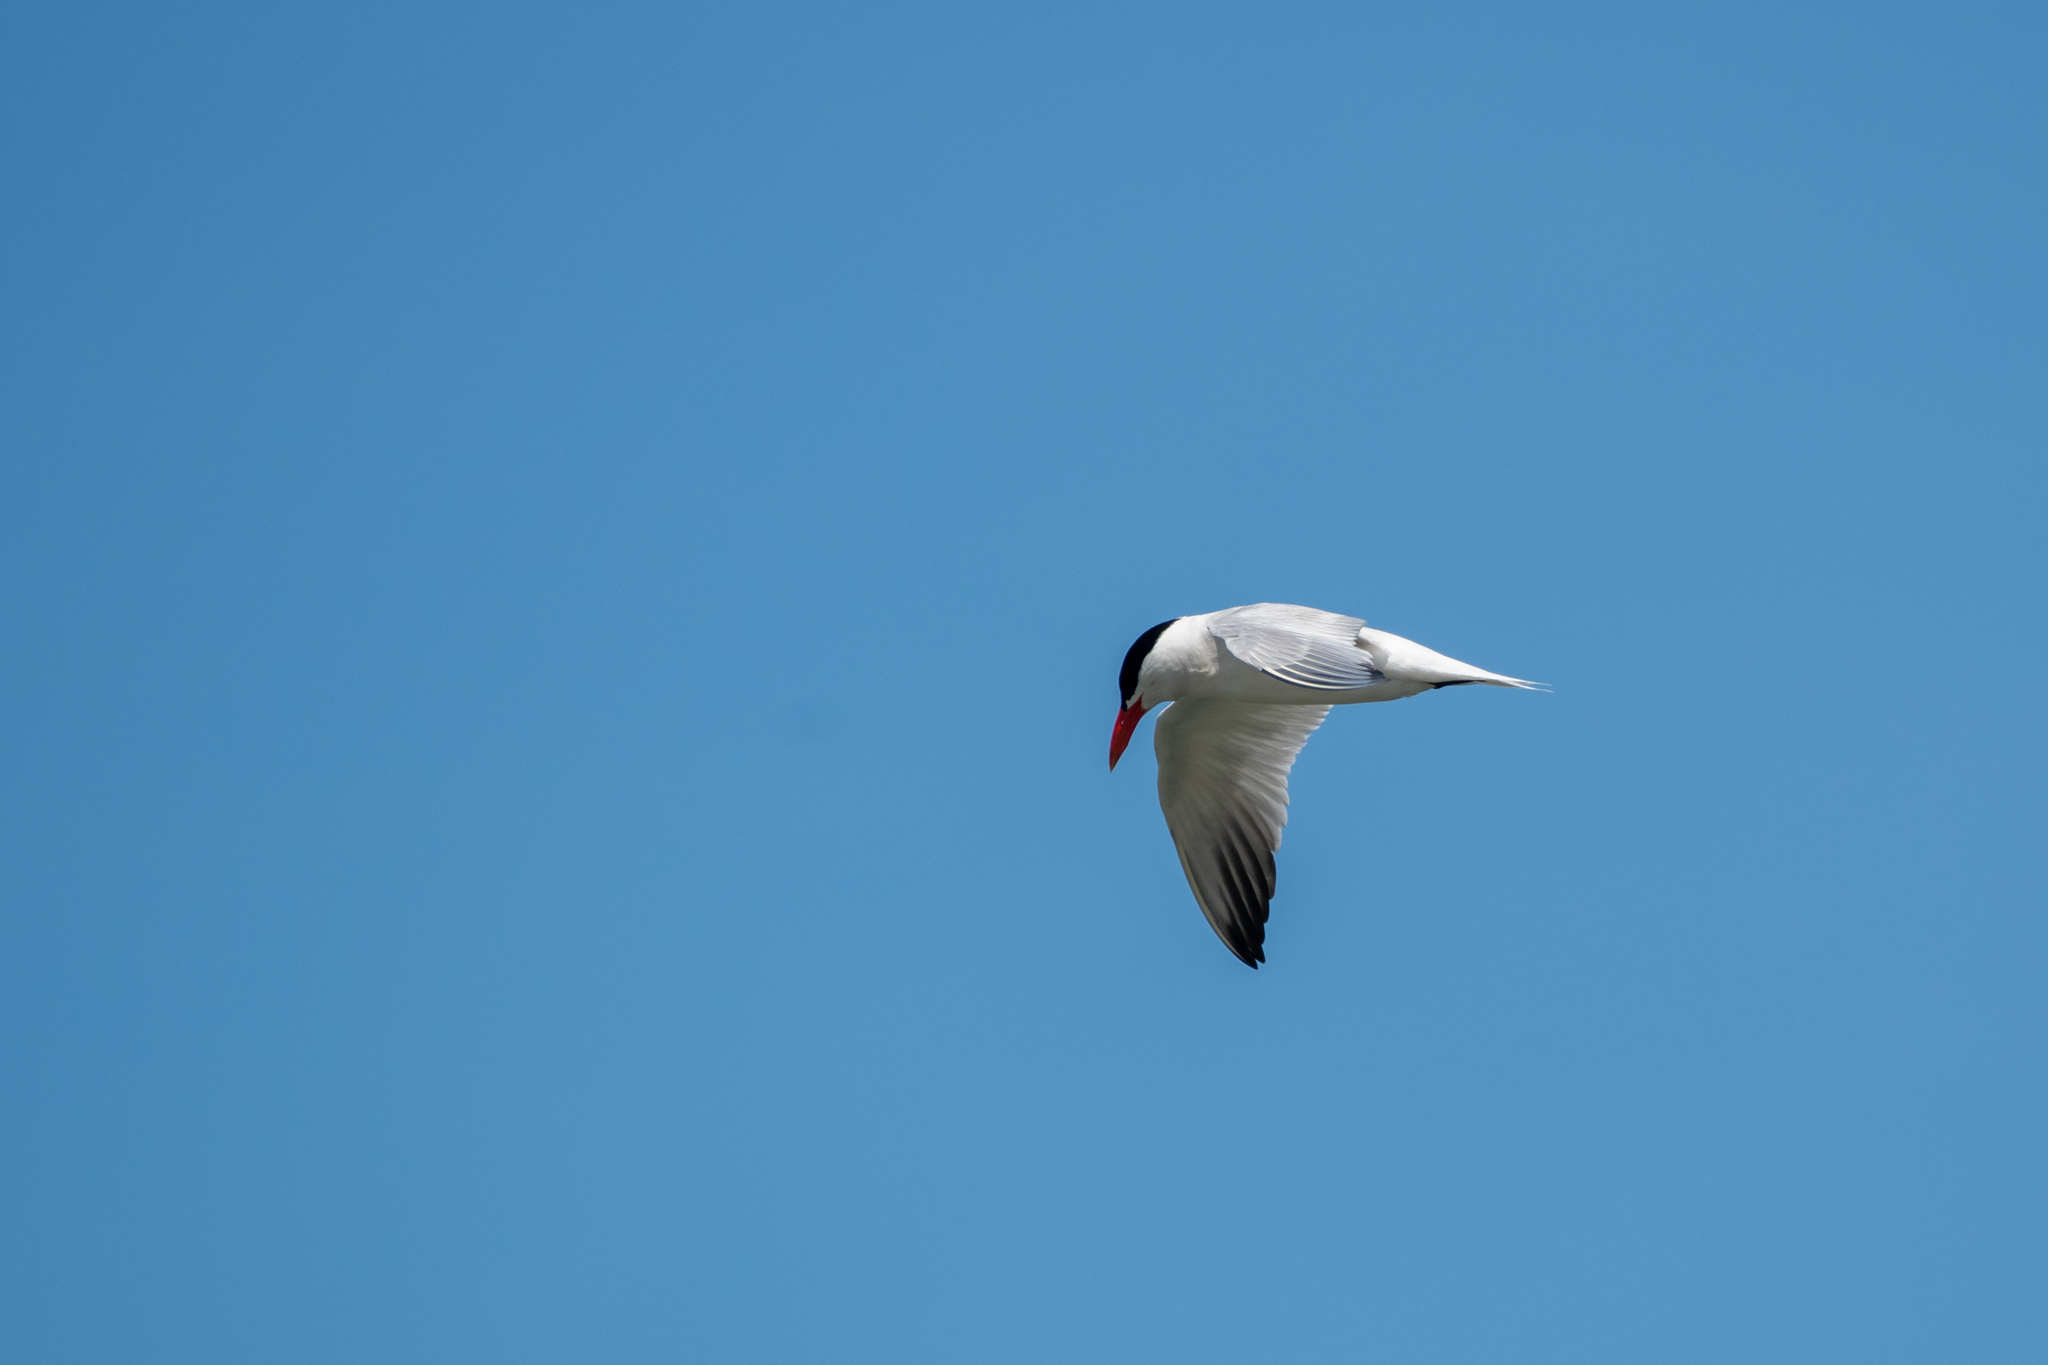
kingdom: Animalia
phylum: Chordata
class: Aves
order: Charadriiformes
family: Laridae
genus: Hydroprogne
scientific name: Hydroprogne caspia
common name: Caspian tern
